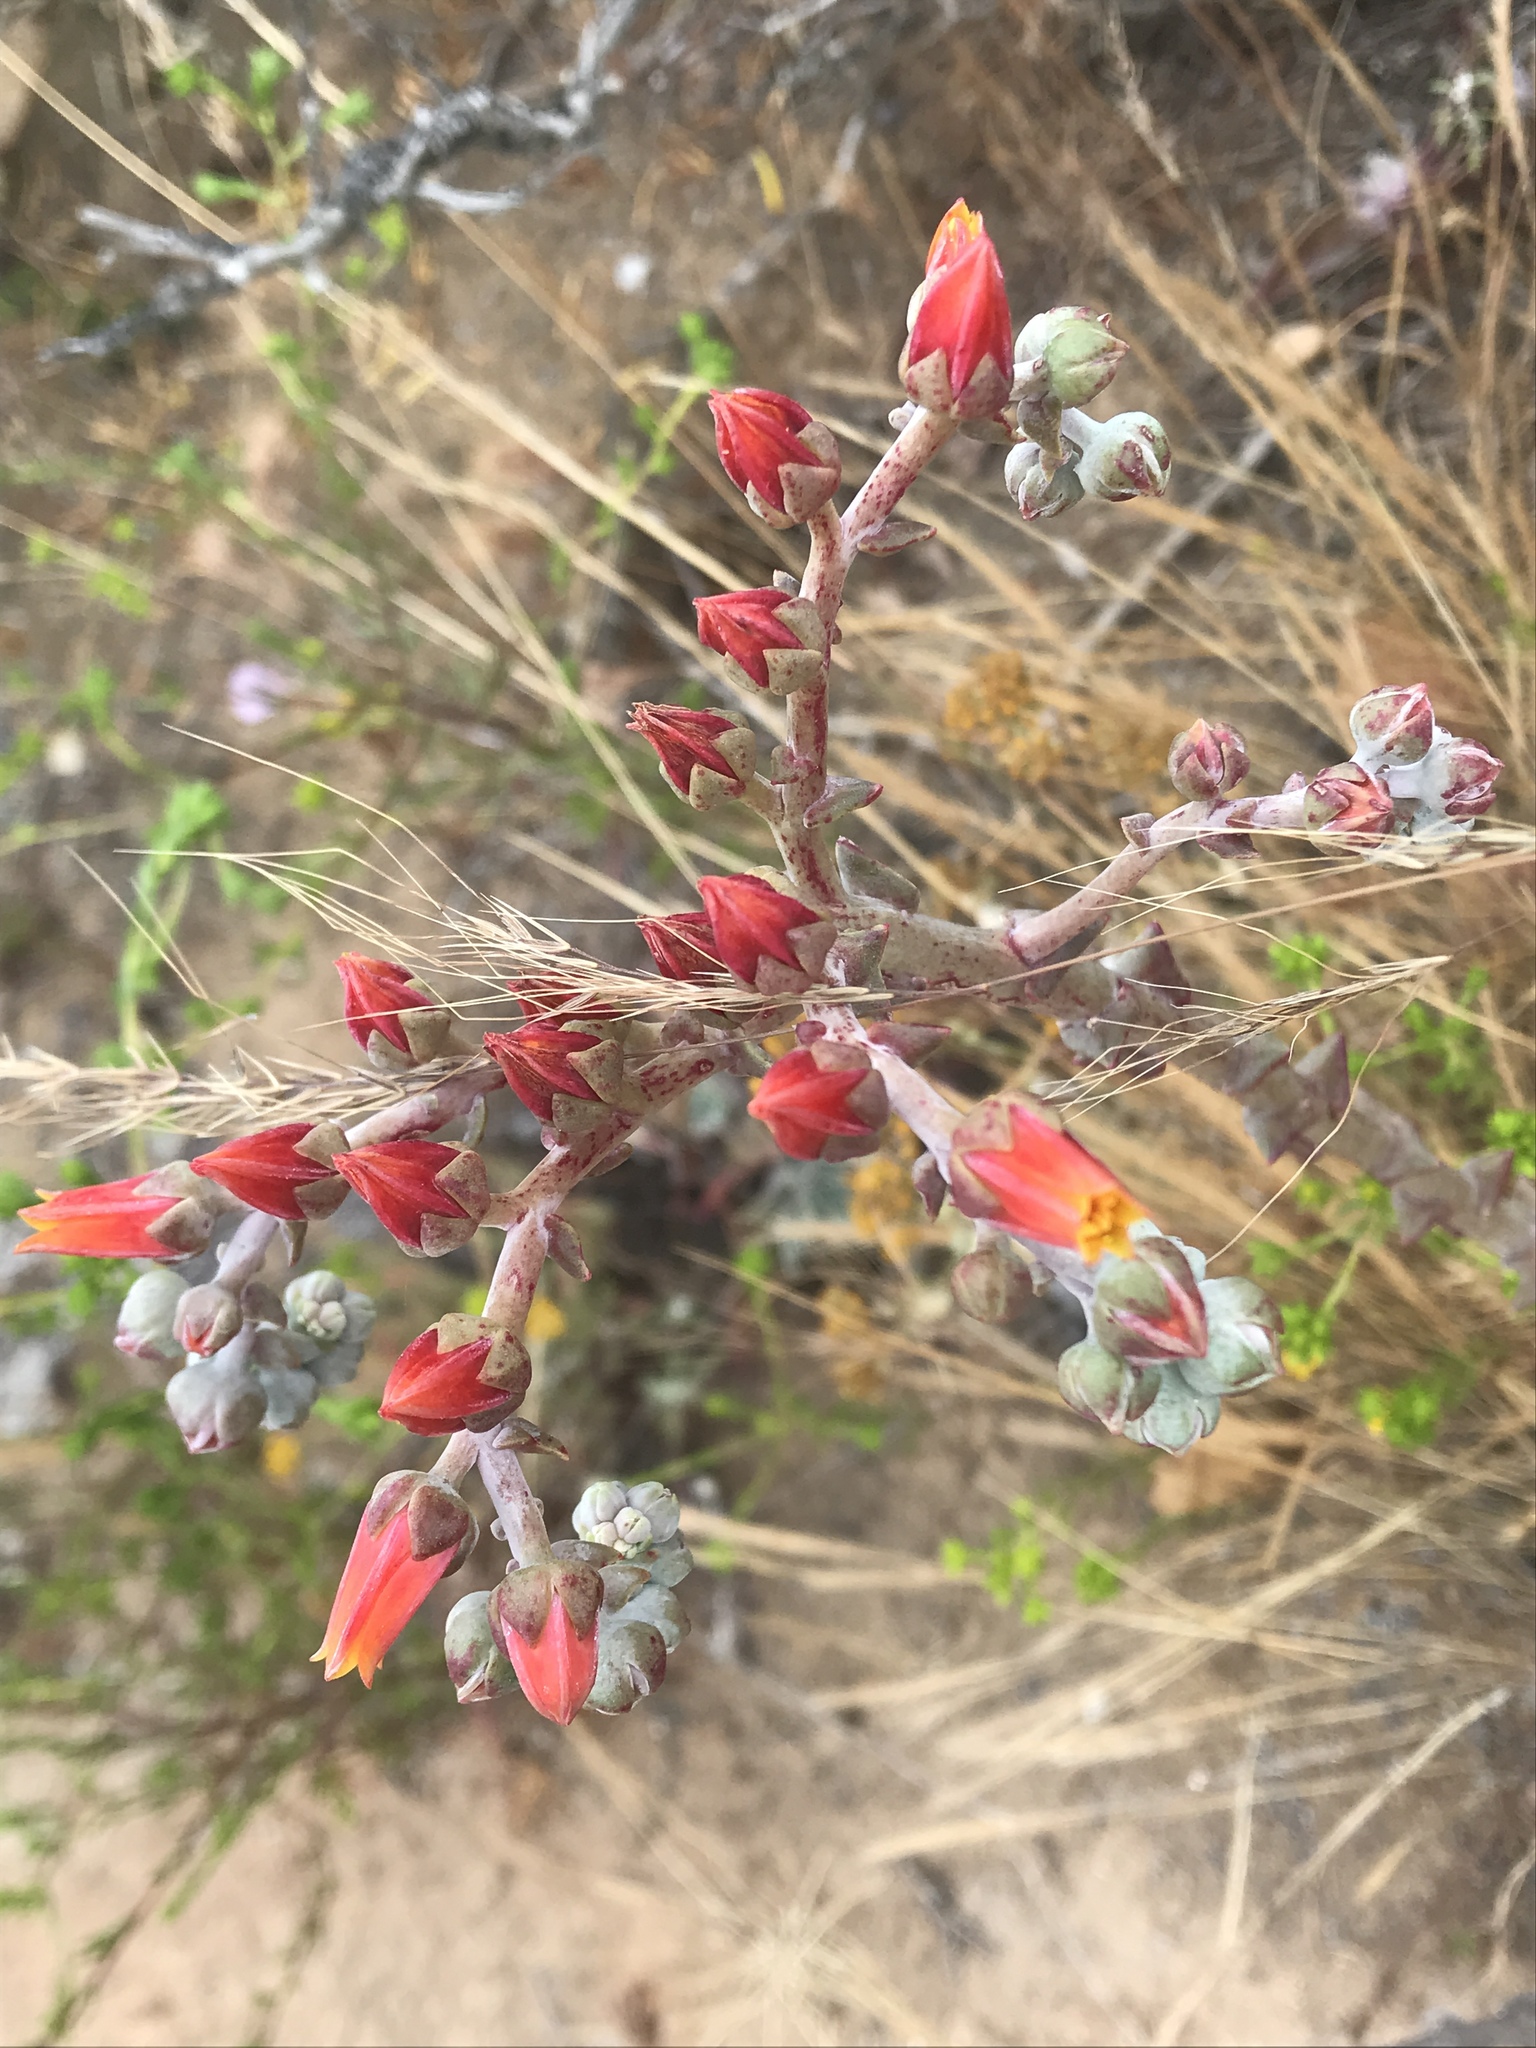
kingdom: Plantae
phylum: Tracheophyta
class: Magnoliopsida
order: Saxifragales
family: Crassulaceae
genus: Dudleya
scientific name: Dudleya lanceolata
